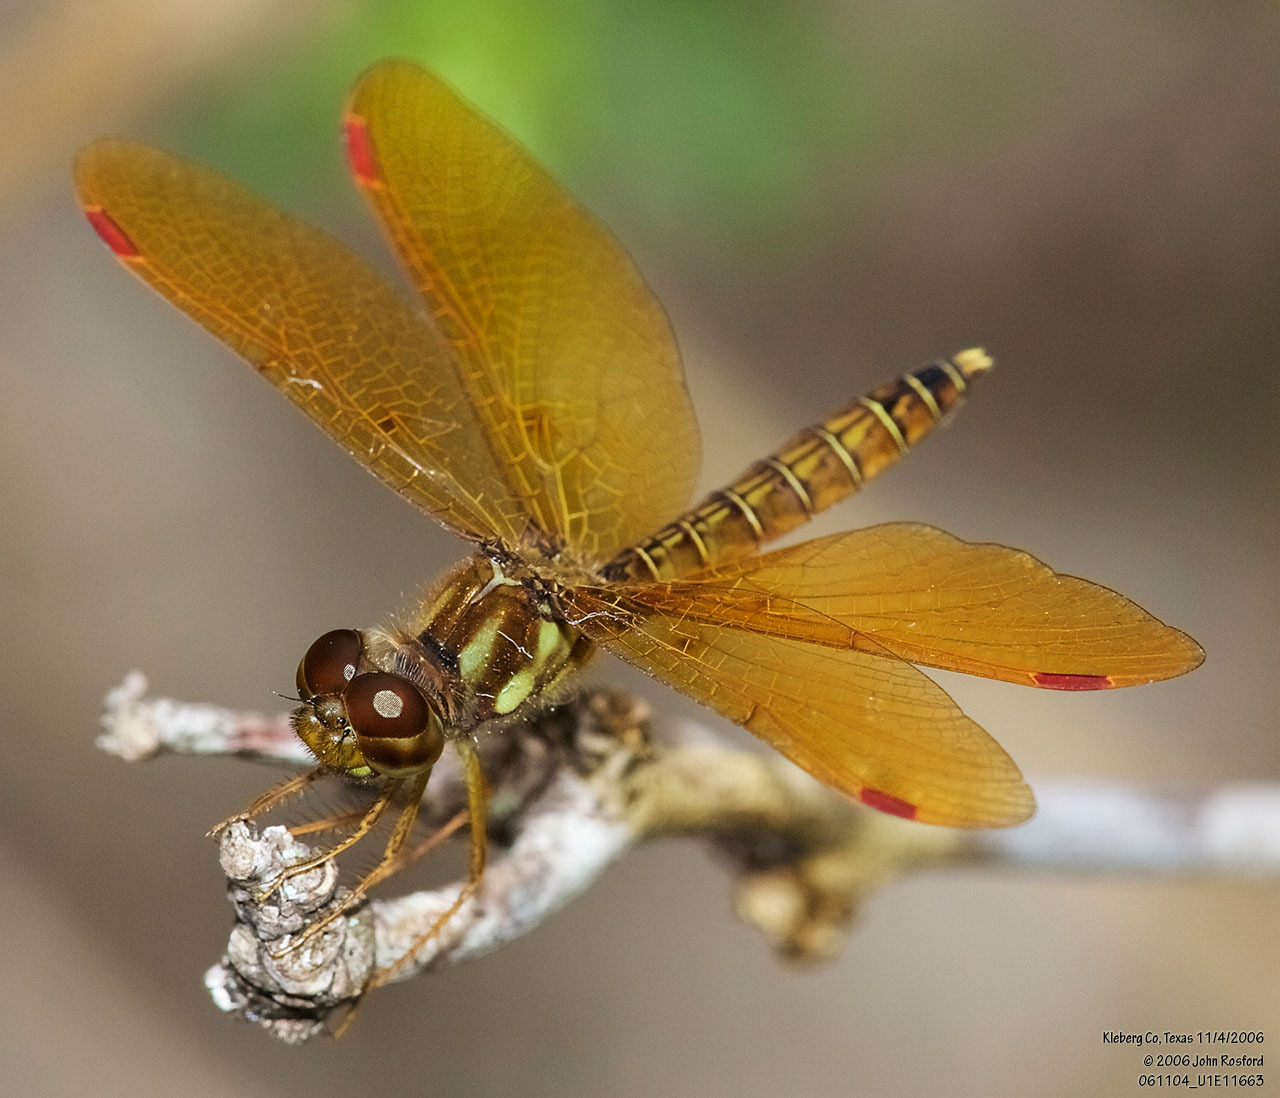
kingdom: Animalia
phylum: Arthropoda
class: Insecta
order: Odonata
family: Libellulidae
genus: Perithemis
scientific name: Perithemis tenera
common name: Eastern amberwing
